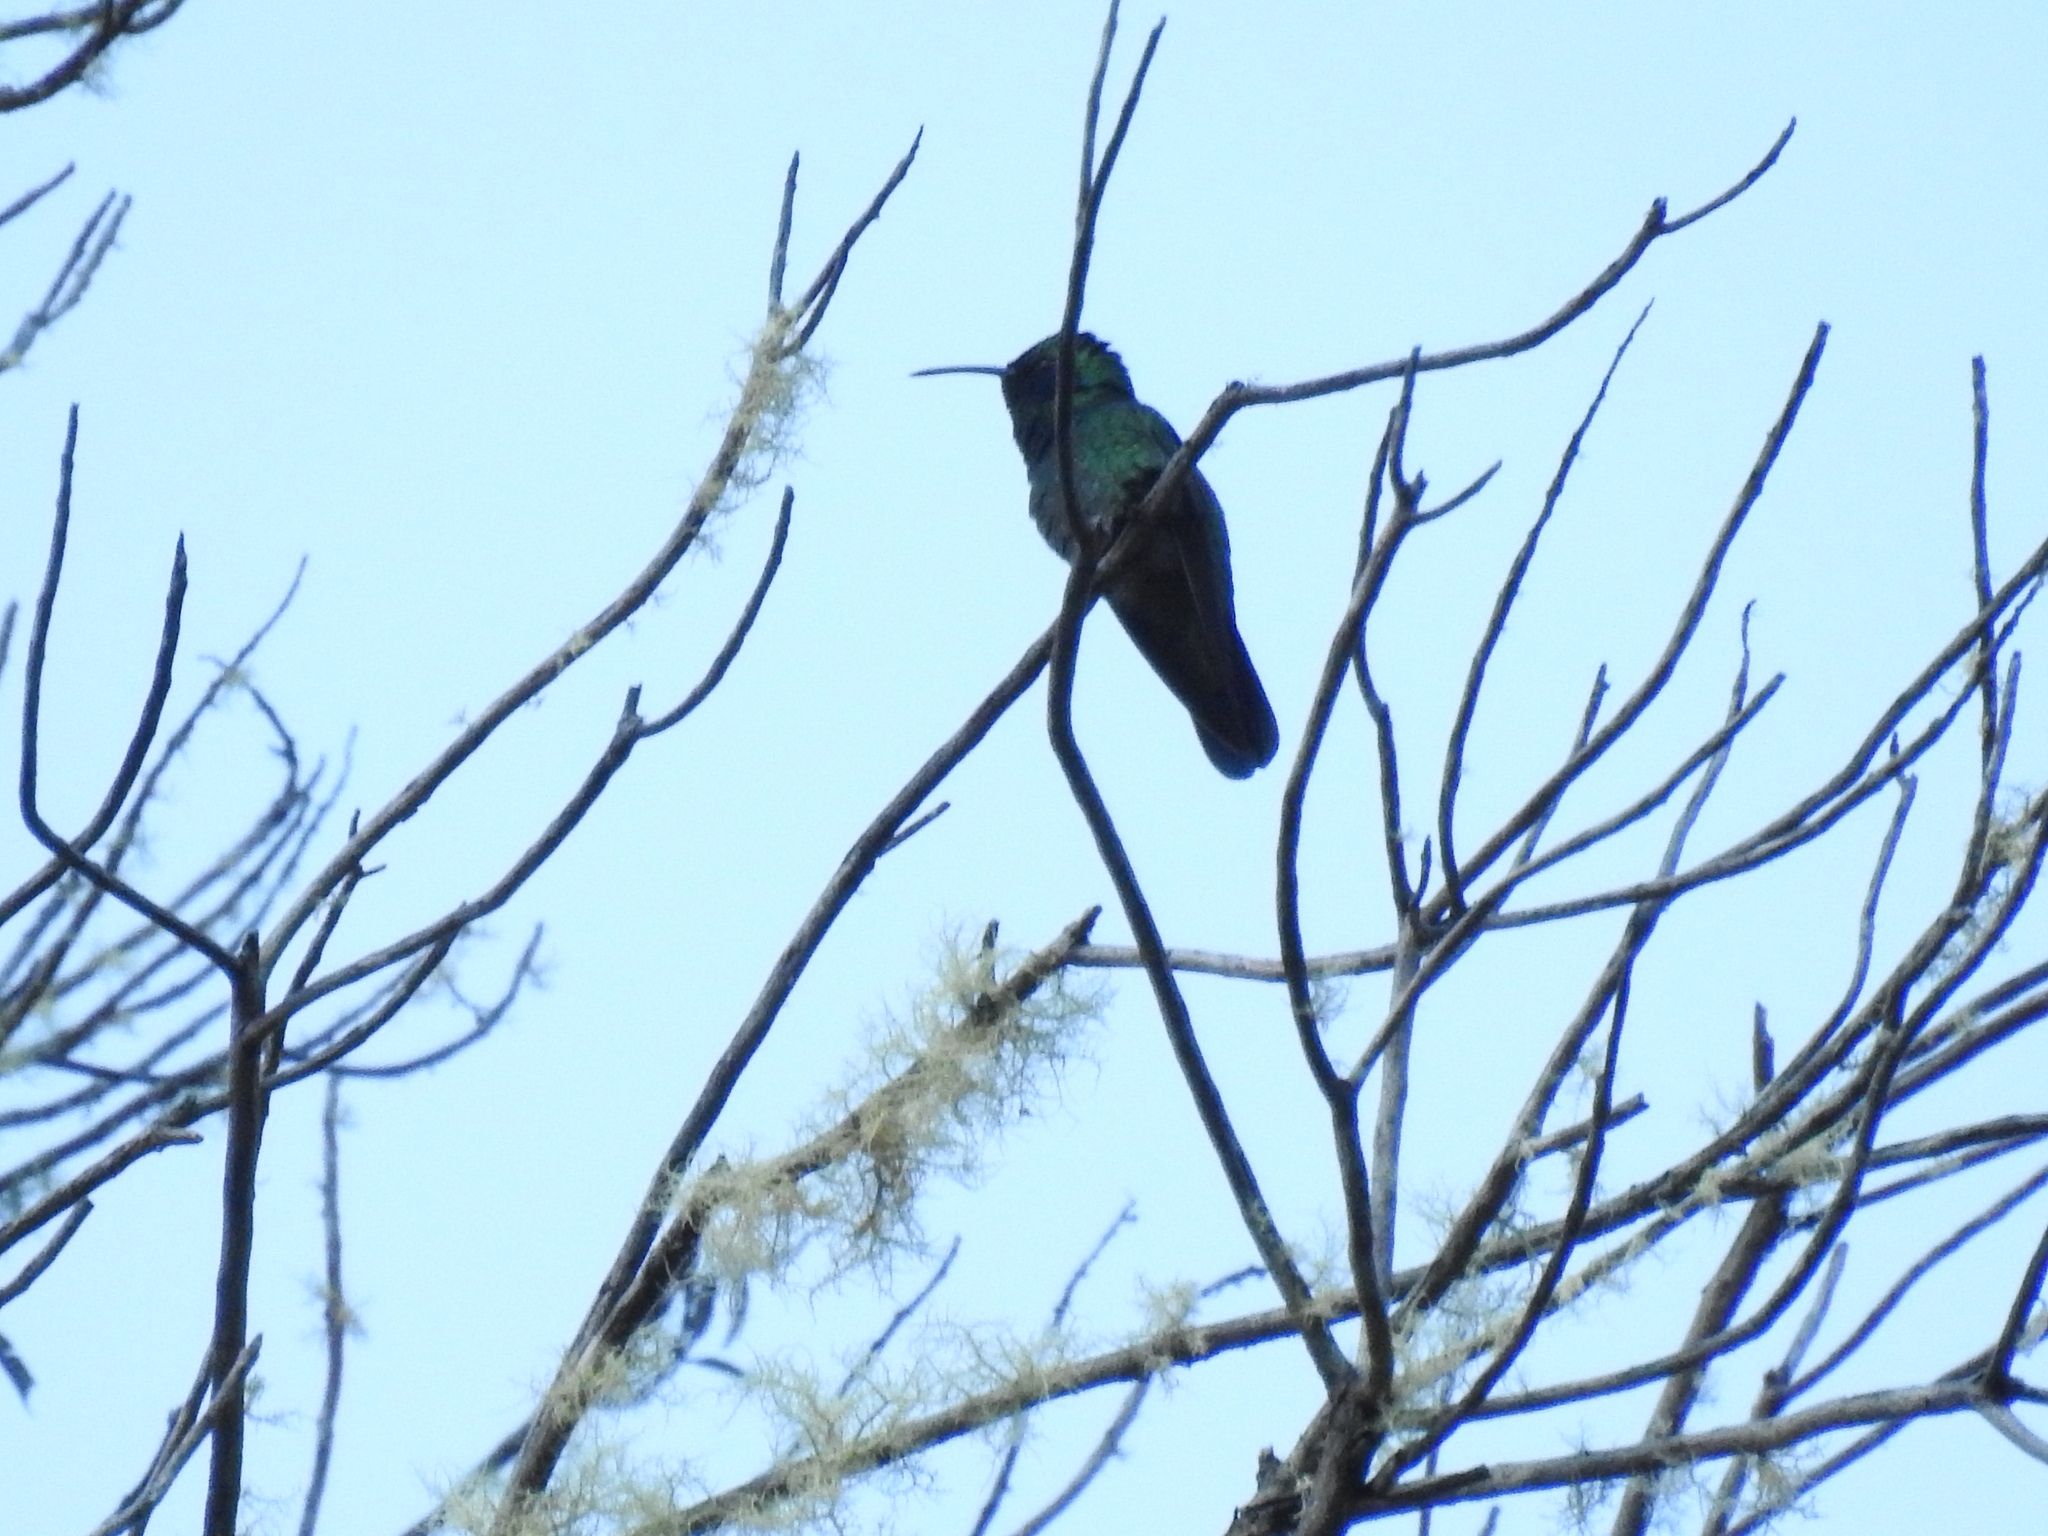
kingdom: Animalia
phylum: Chordata
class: Aves
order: Apodiformes
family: Trochilidae
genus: Colibri
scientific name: Colibri cyanotus
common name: Lesser violetear
